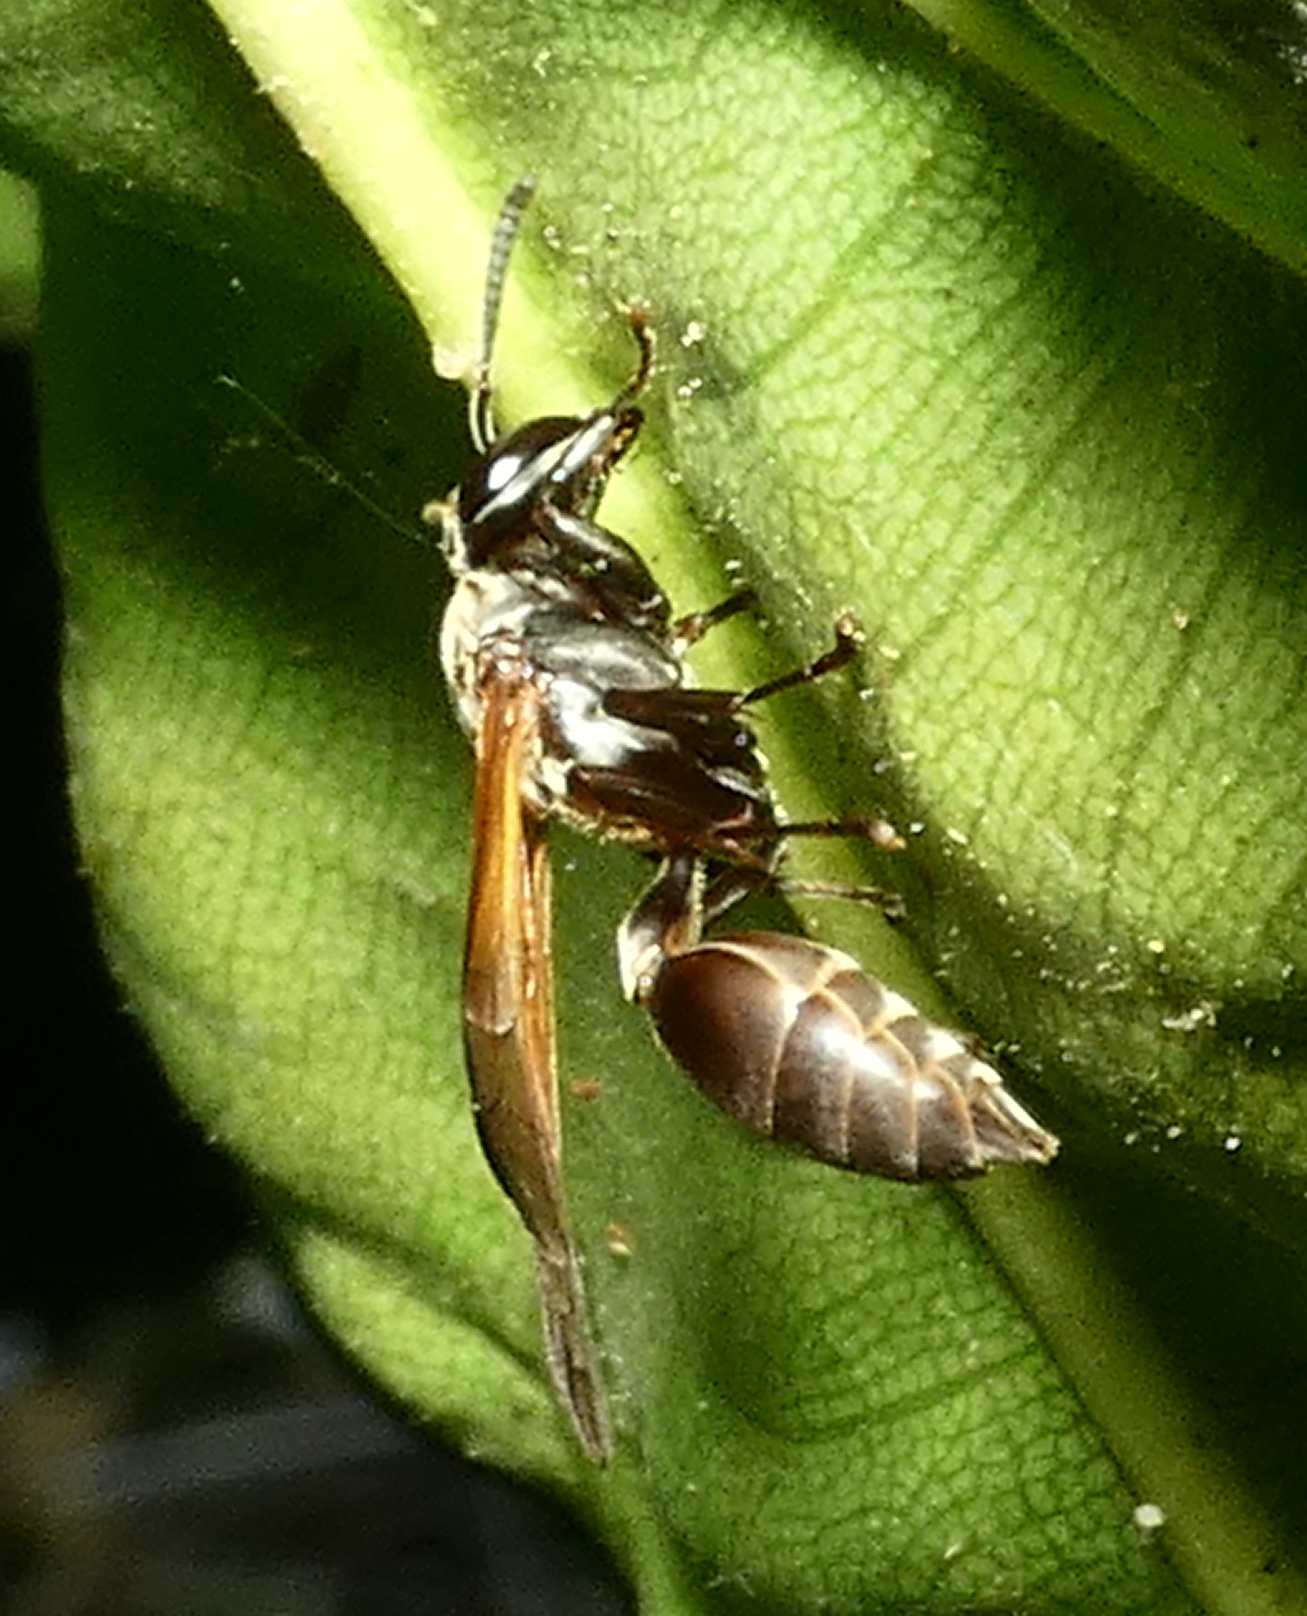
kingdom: Animalia
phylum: Arthropoda
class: Insecta
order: Hymenoptera
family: Eumenidae
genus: Polybia
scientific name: Polybia rejecta
